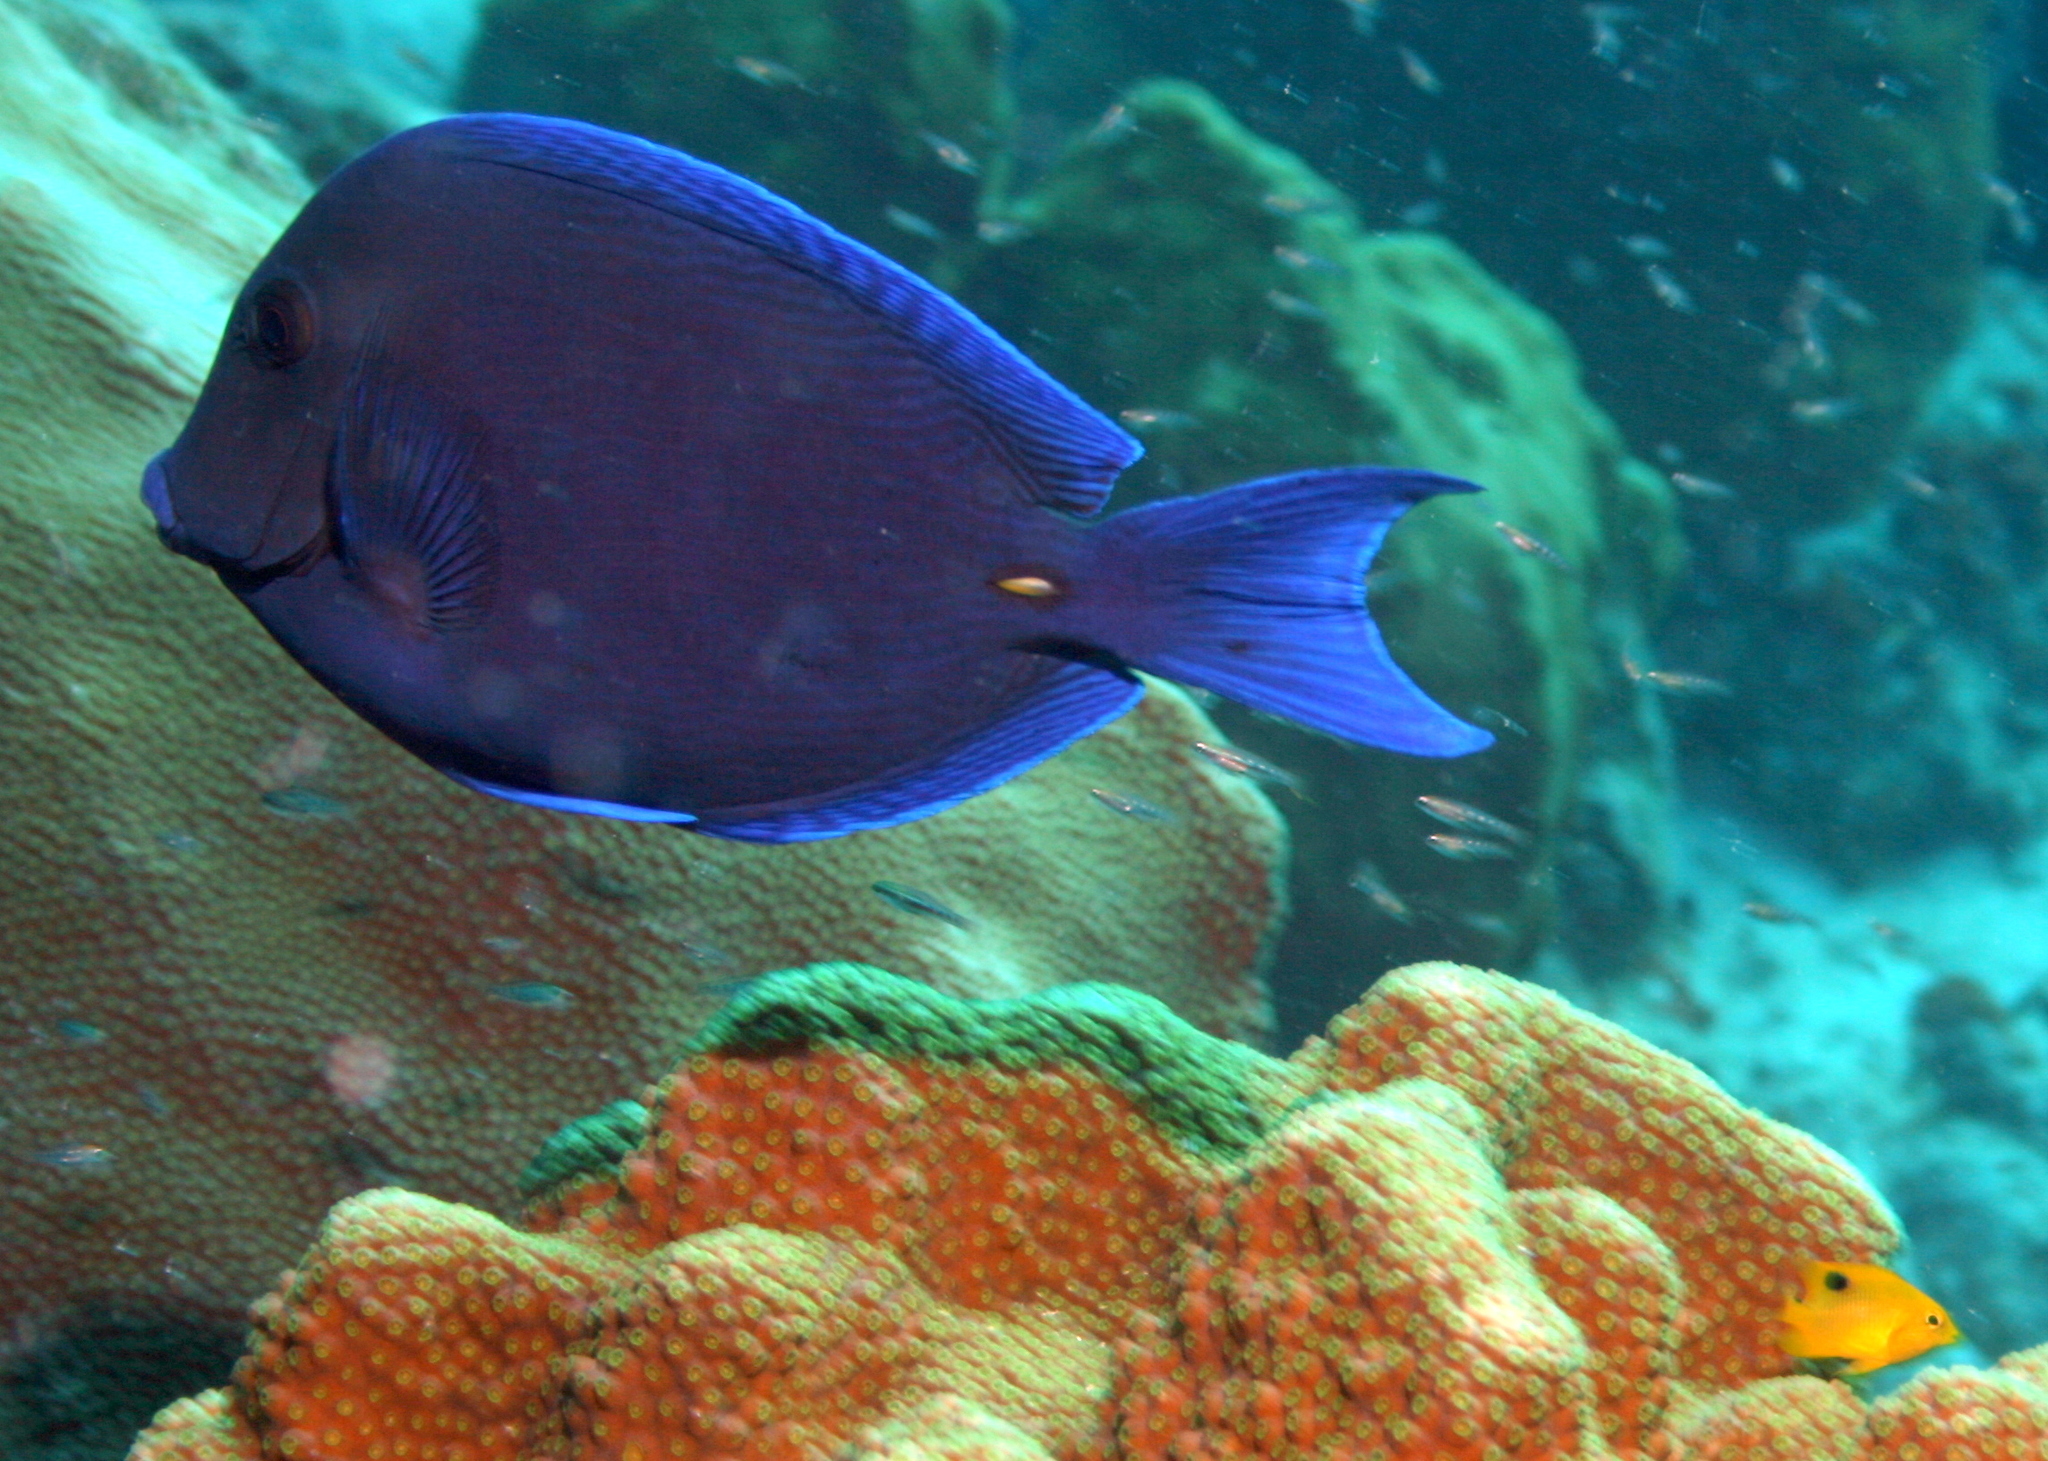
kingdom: Animalia
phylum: Chordata
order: Perciformes
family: Acanthuridae
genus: Acanthurus
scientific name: Acanthurus coeruleus
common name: Blue tang
